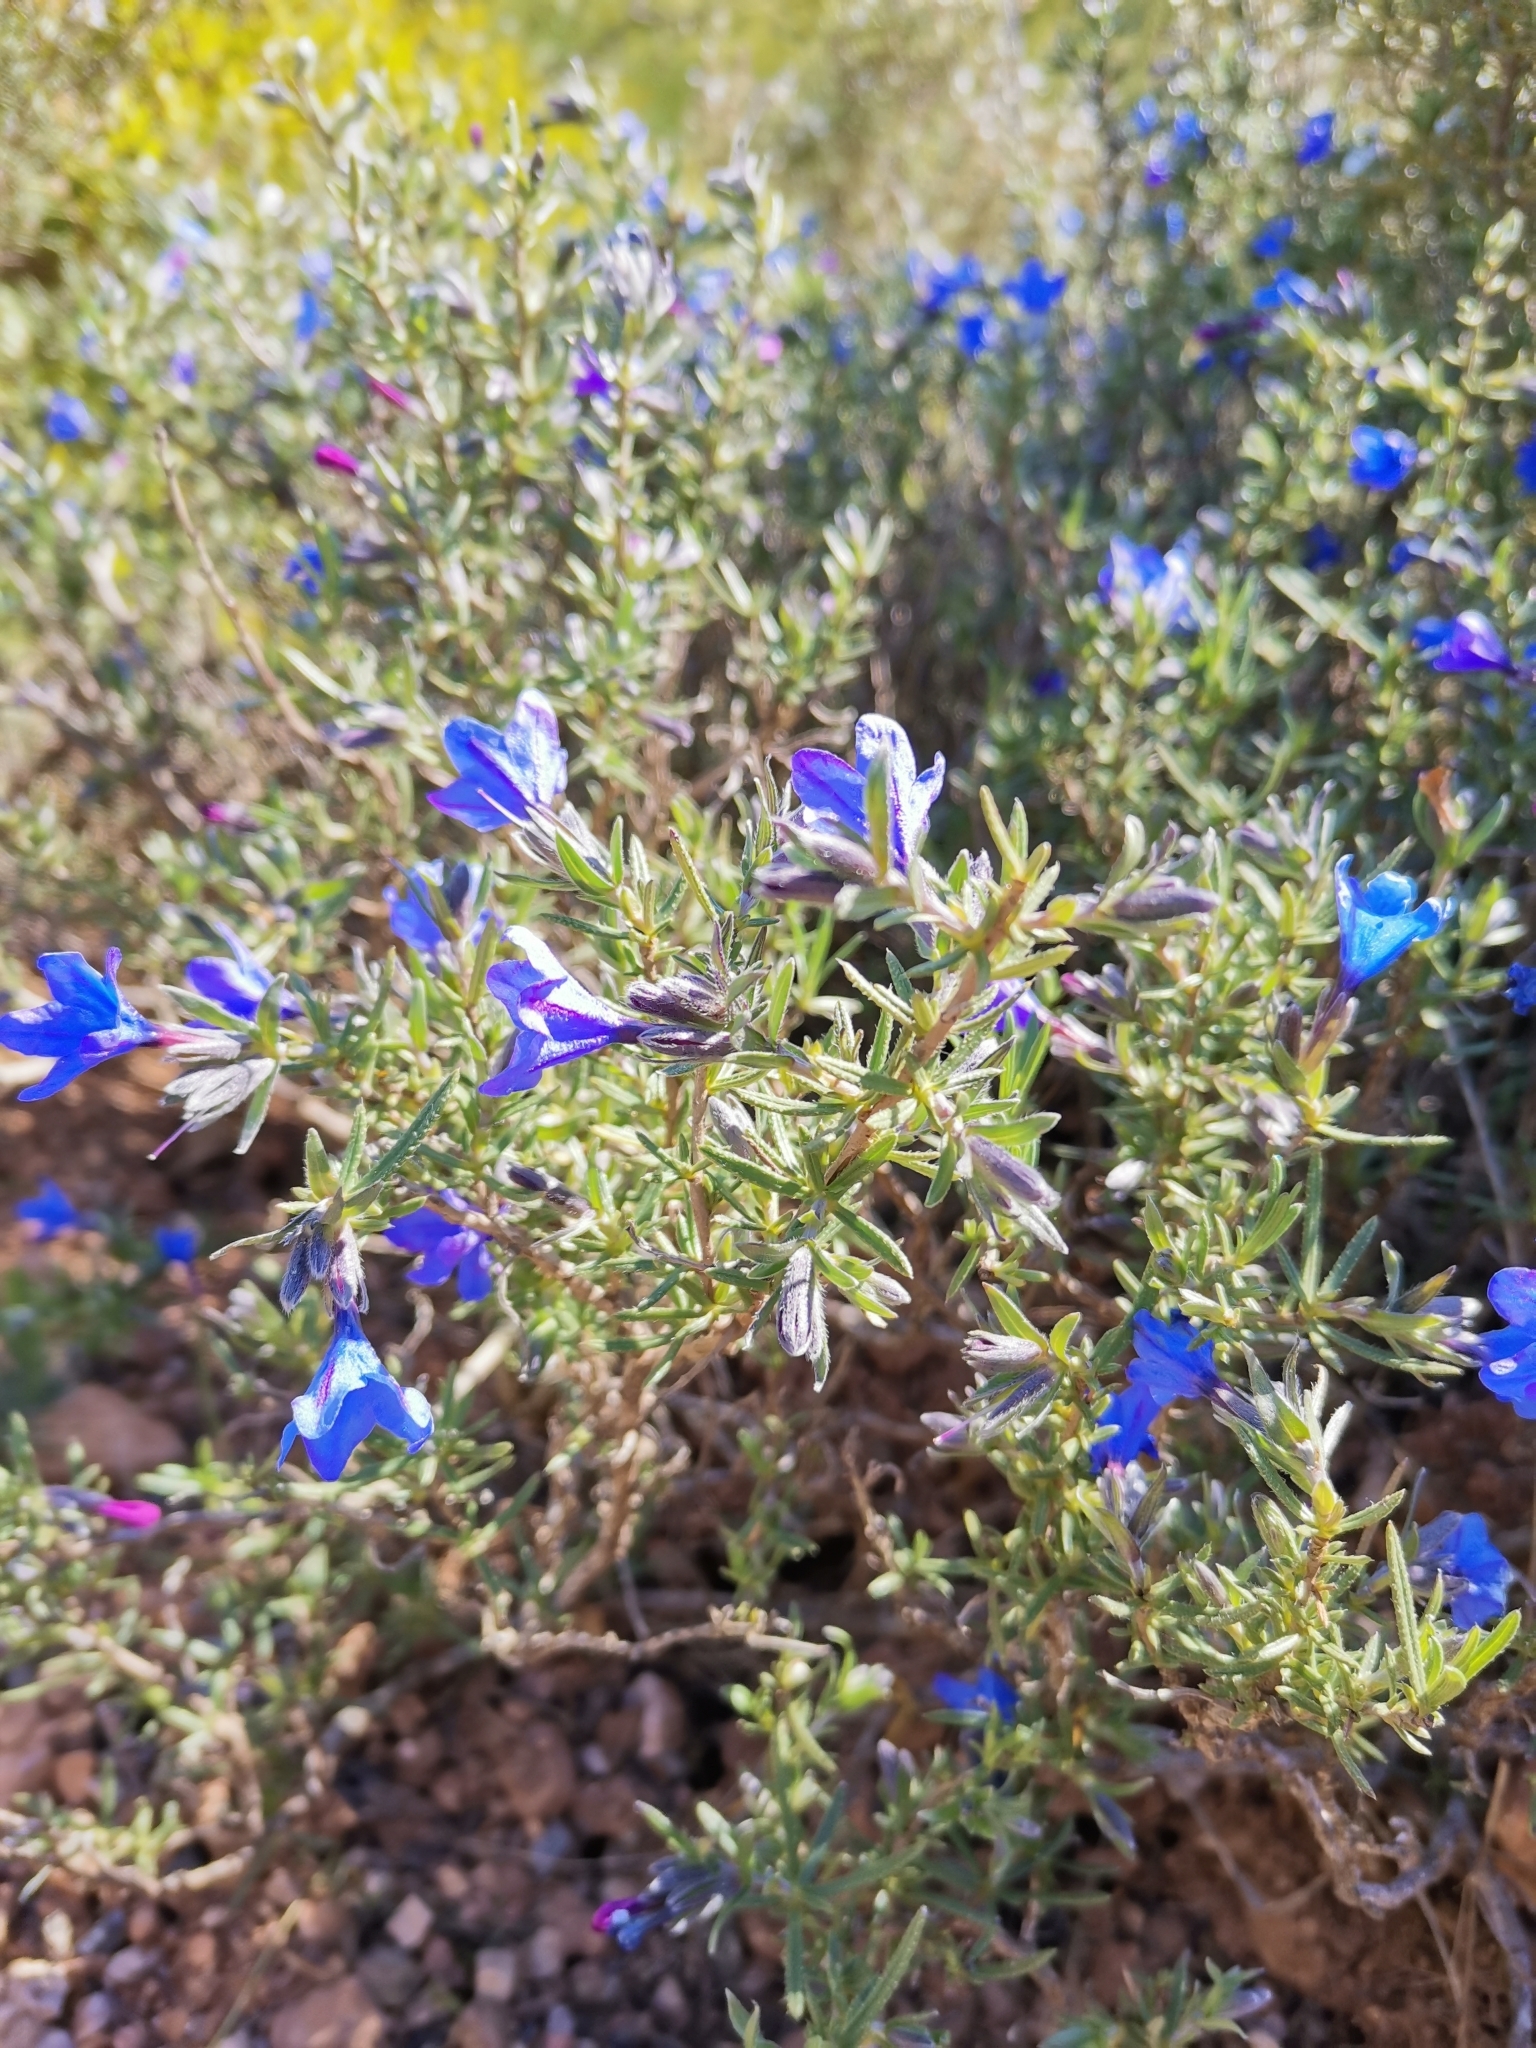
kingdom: Plantae
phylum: Tracheophyta
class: Magnoliopsida
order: Boraginales
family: Boraginaceae
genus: Lithodora
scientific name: Lithodora fruticosa
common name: Shrubby gromwell
